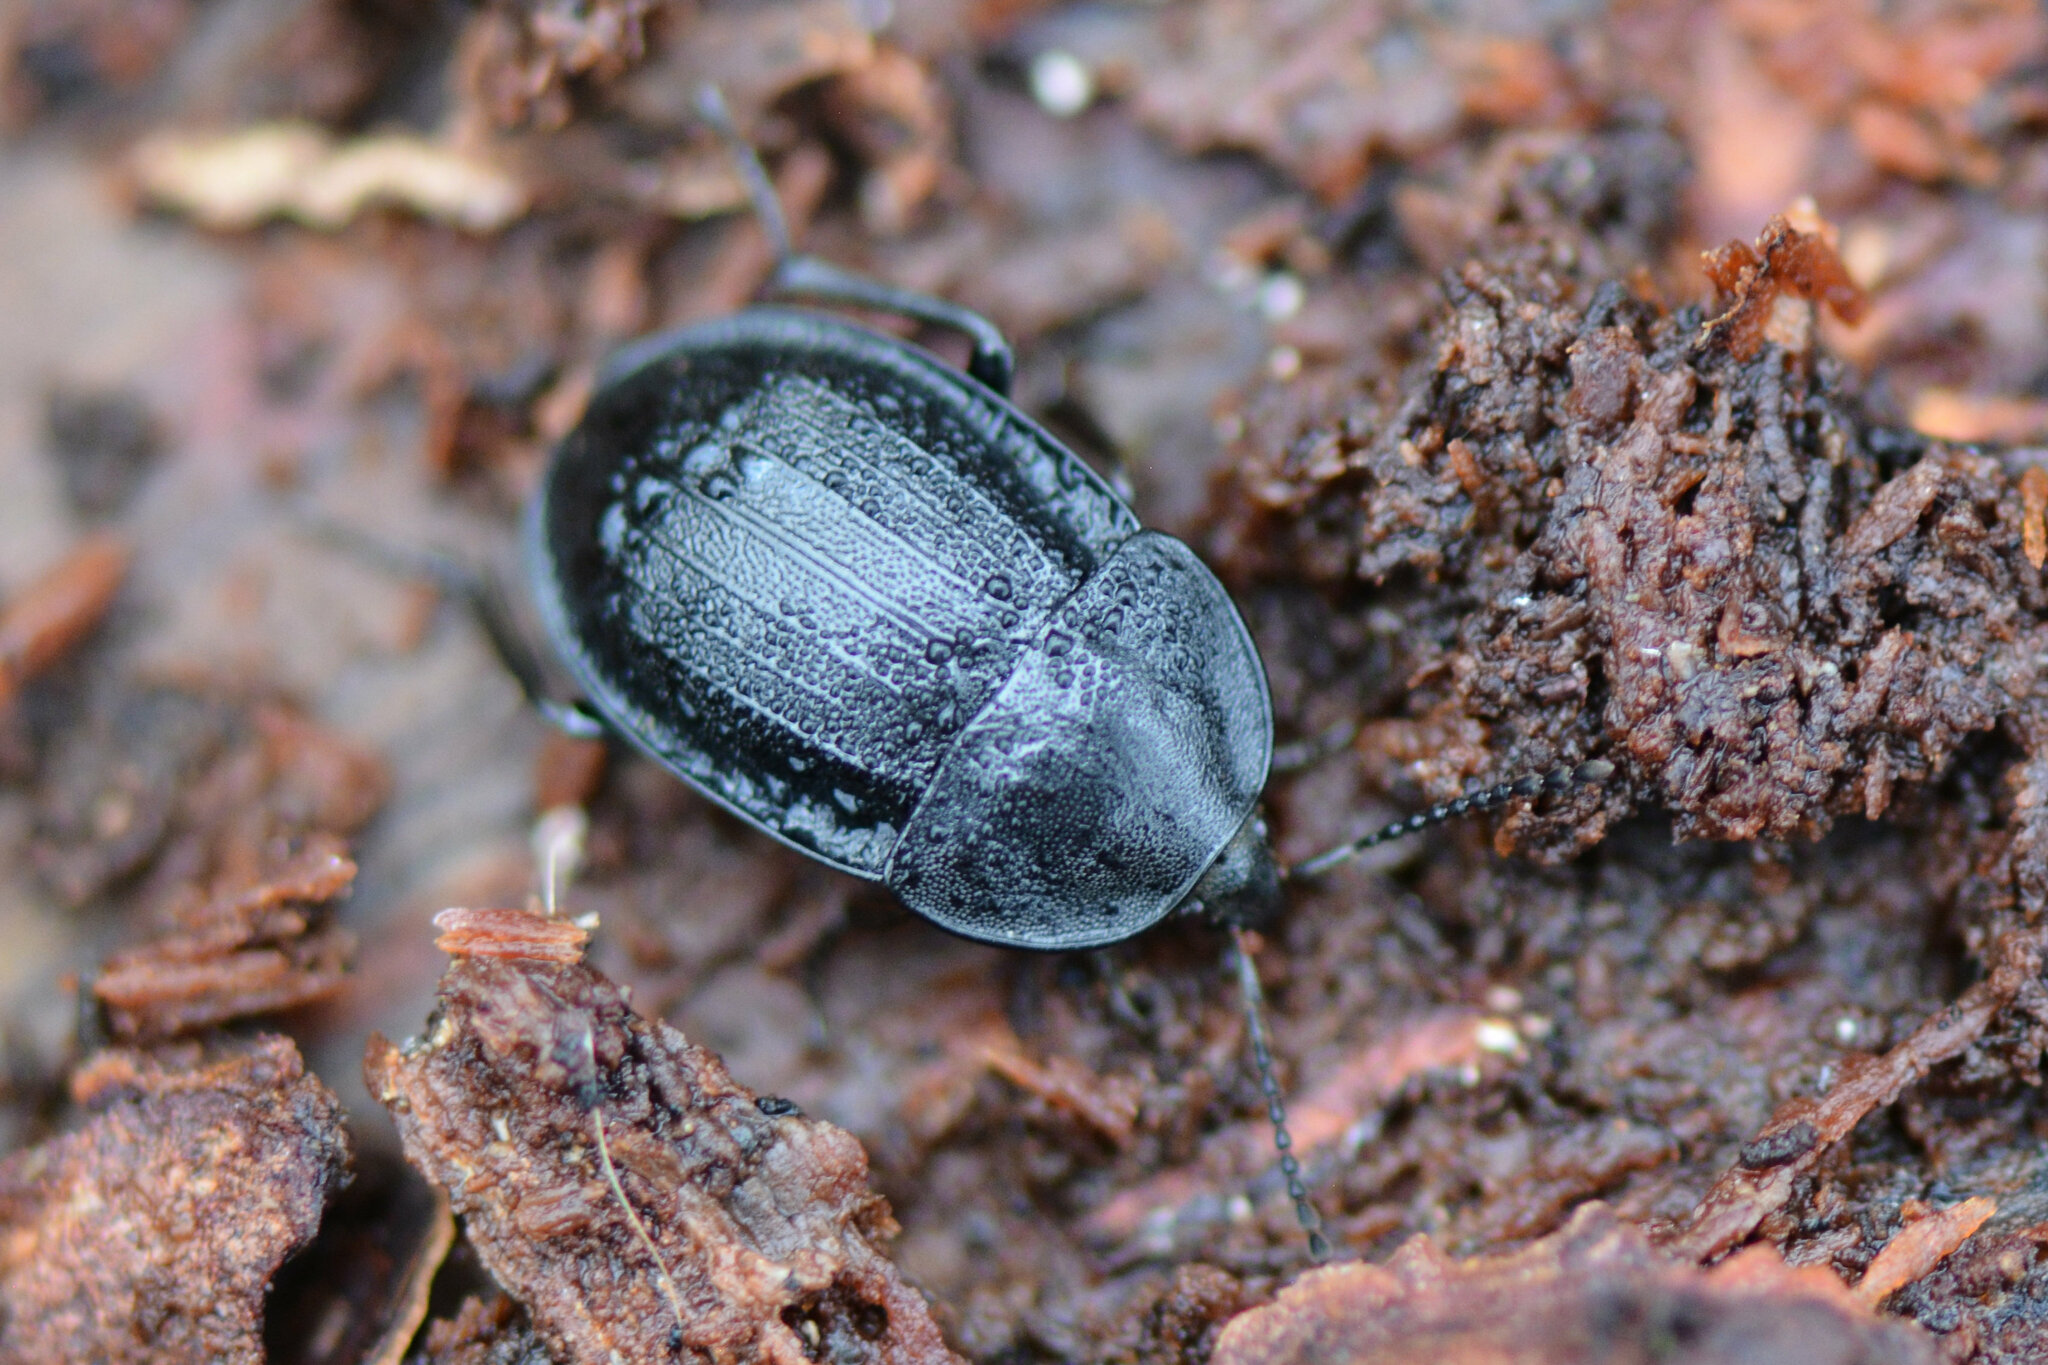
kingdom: Animalia
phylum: Arthropoda
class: Insecta
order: Coleoptera
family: Staphylinidae
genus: Silpha
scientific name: Silpha atrata
